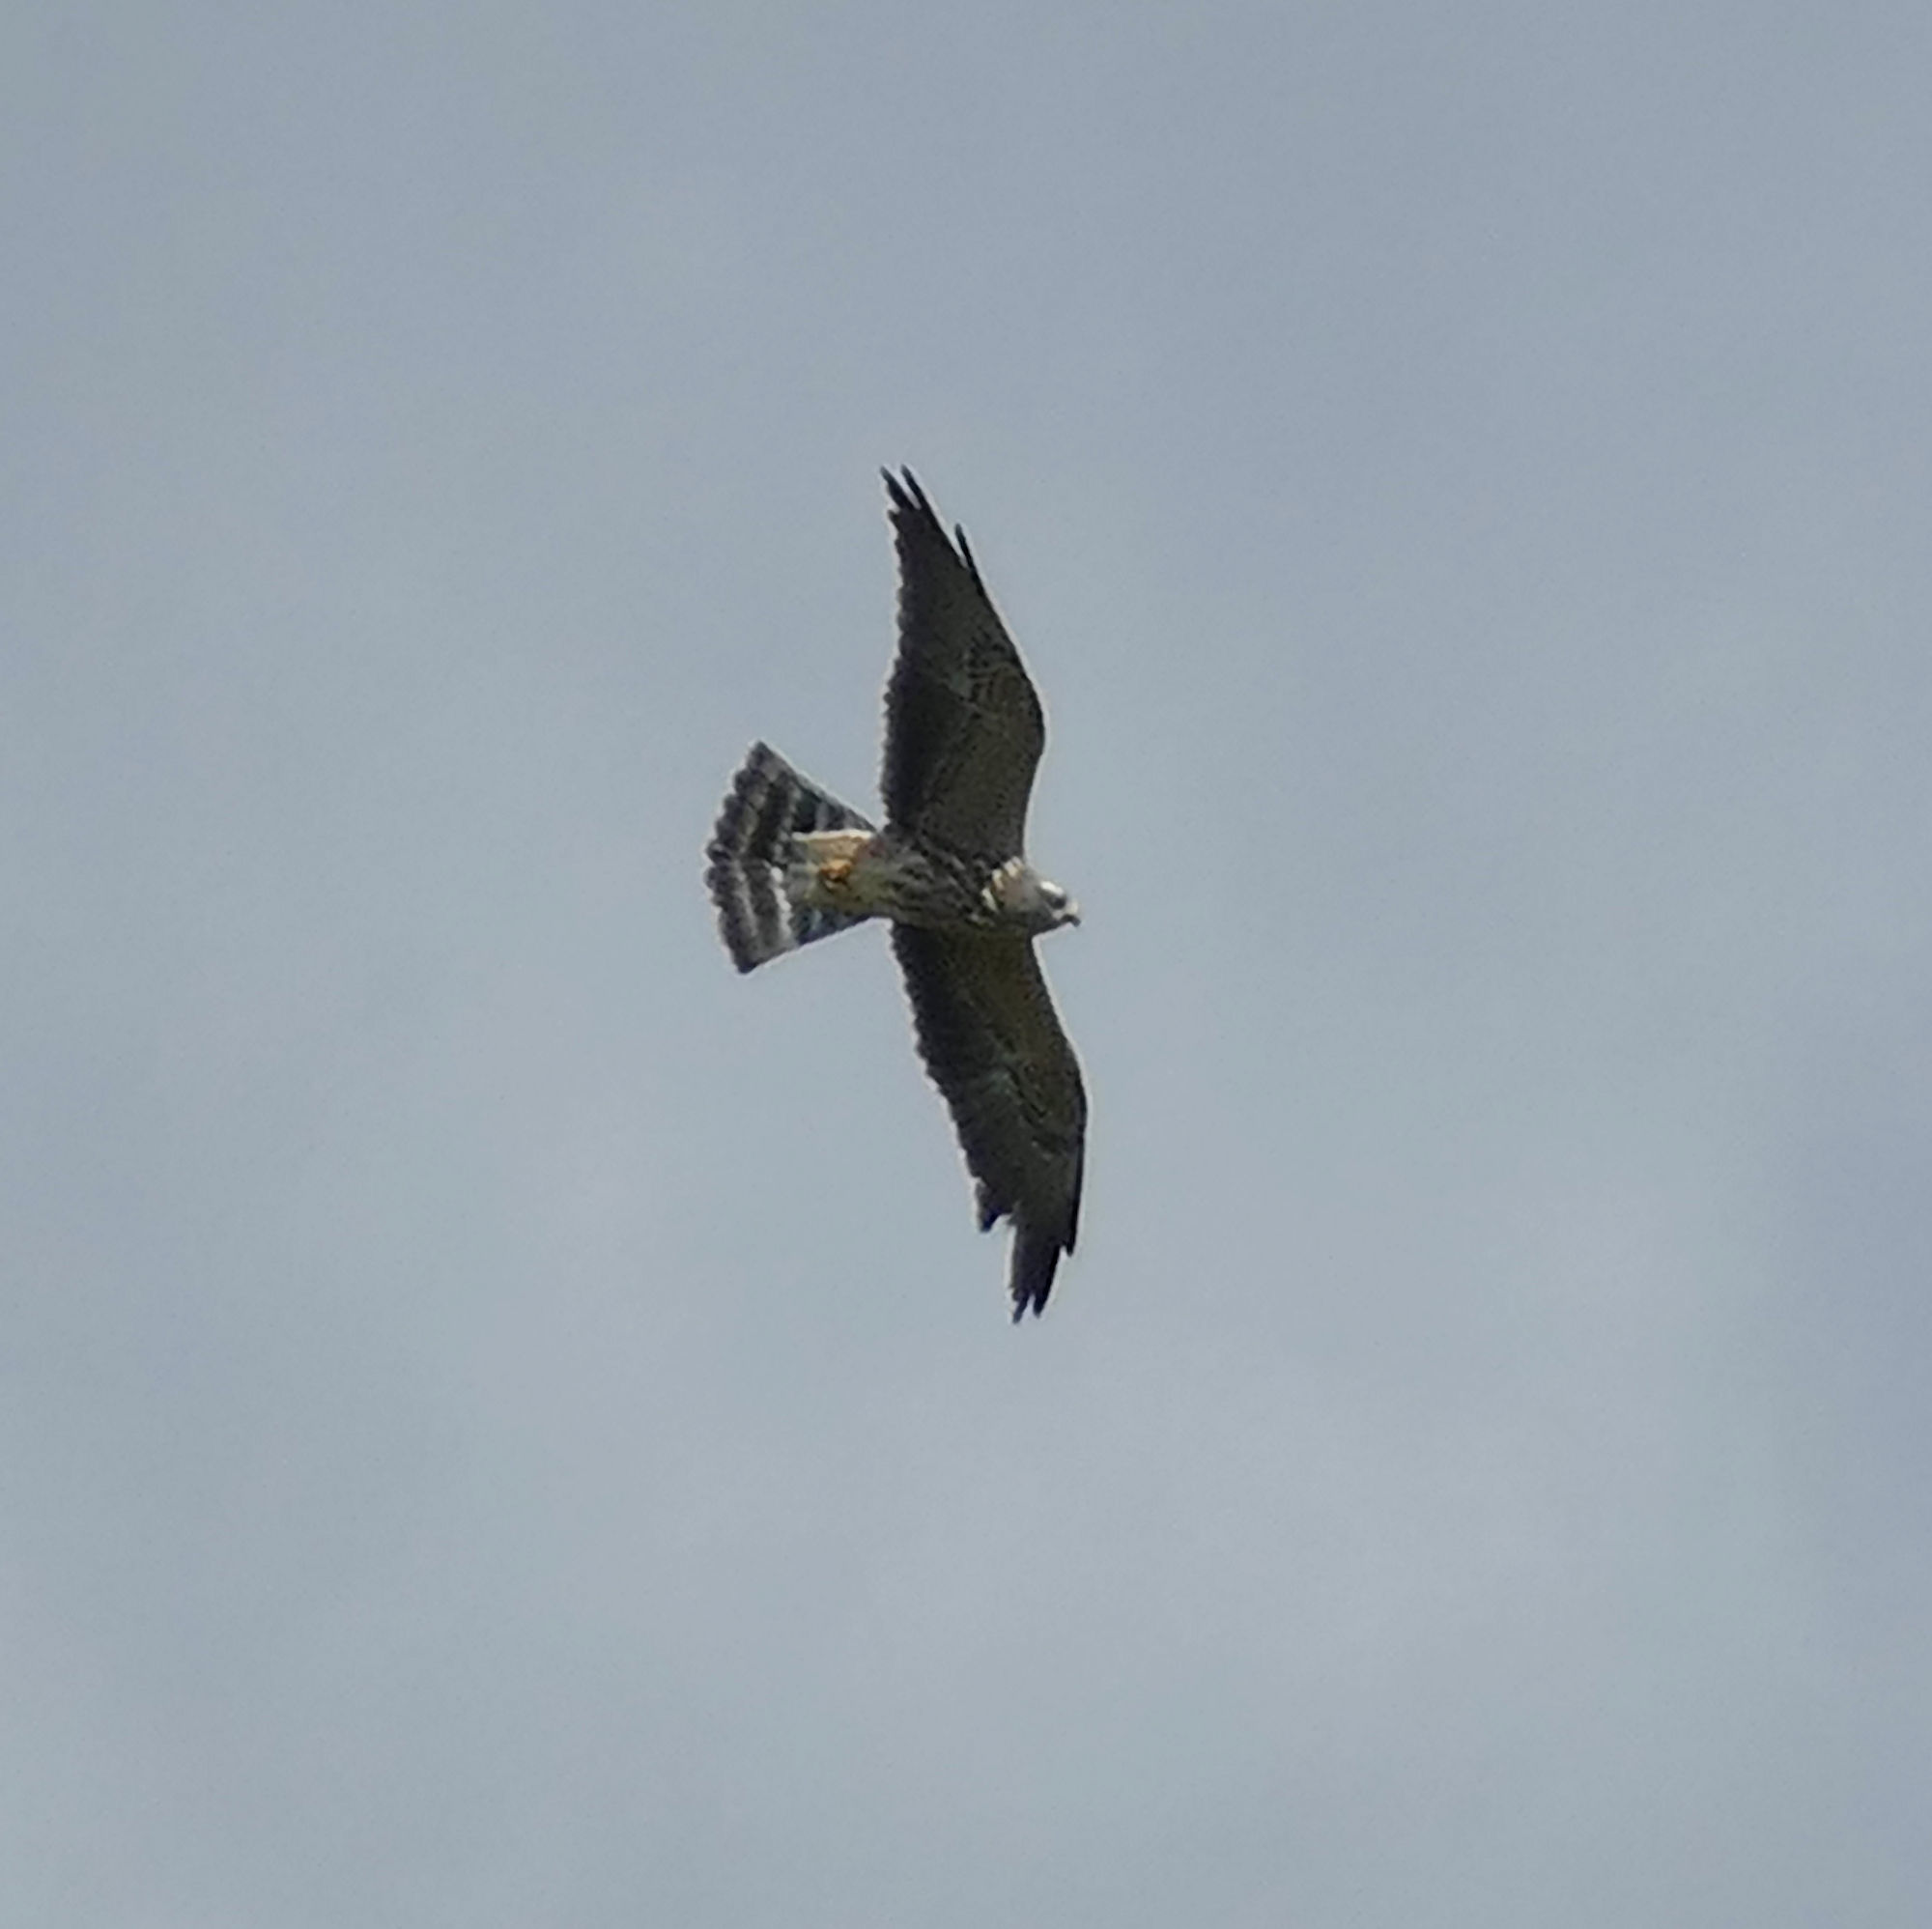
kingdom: Animalia
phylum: Chordata
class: Aves
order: Accipitriformes
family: Accipitridae
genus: Ictinia
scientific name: Ictinia mississippiensis
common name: Mississippi kite
